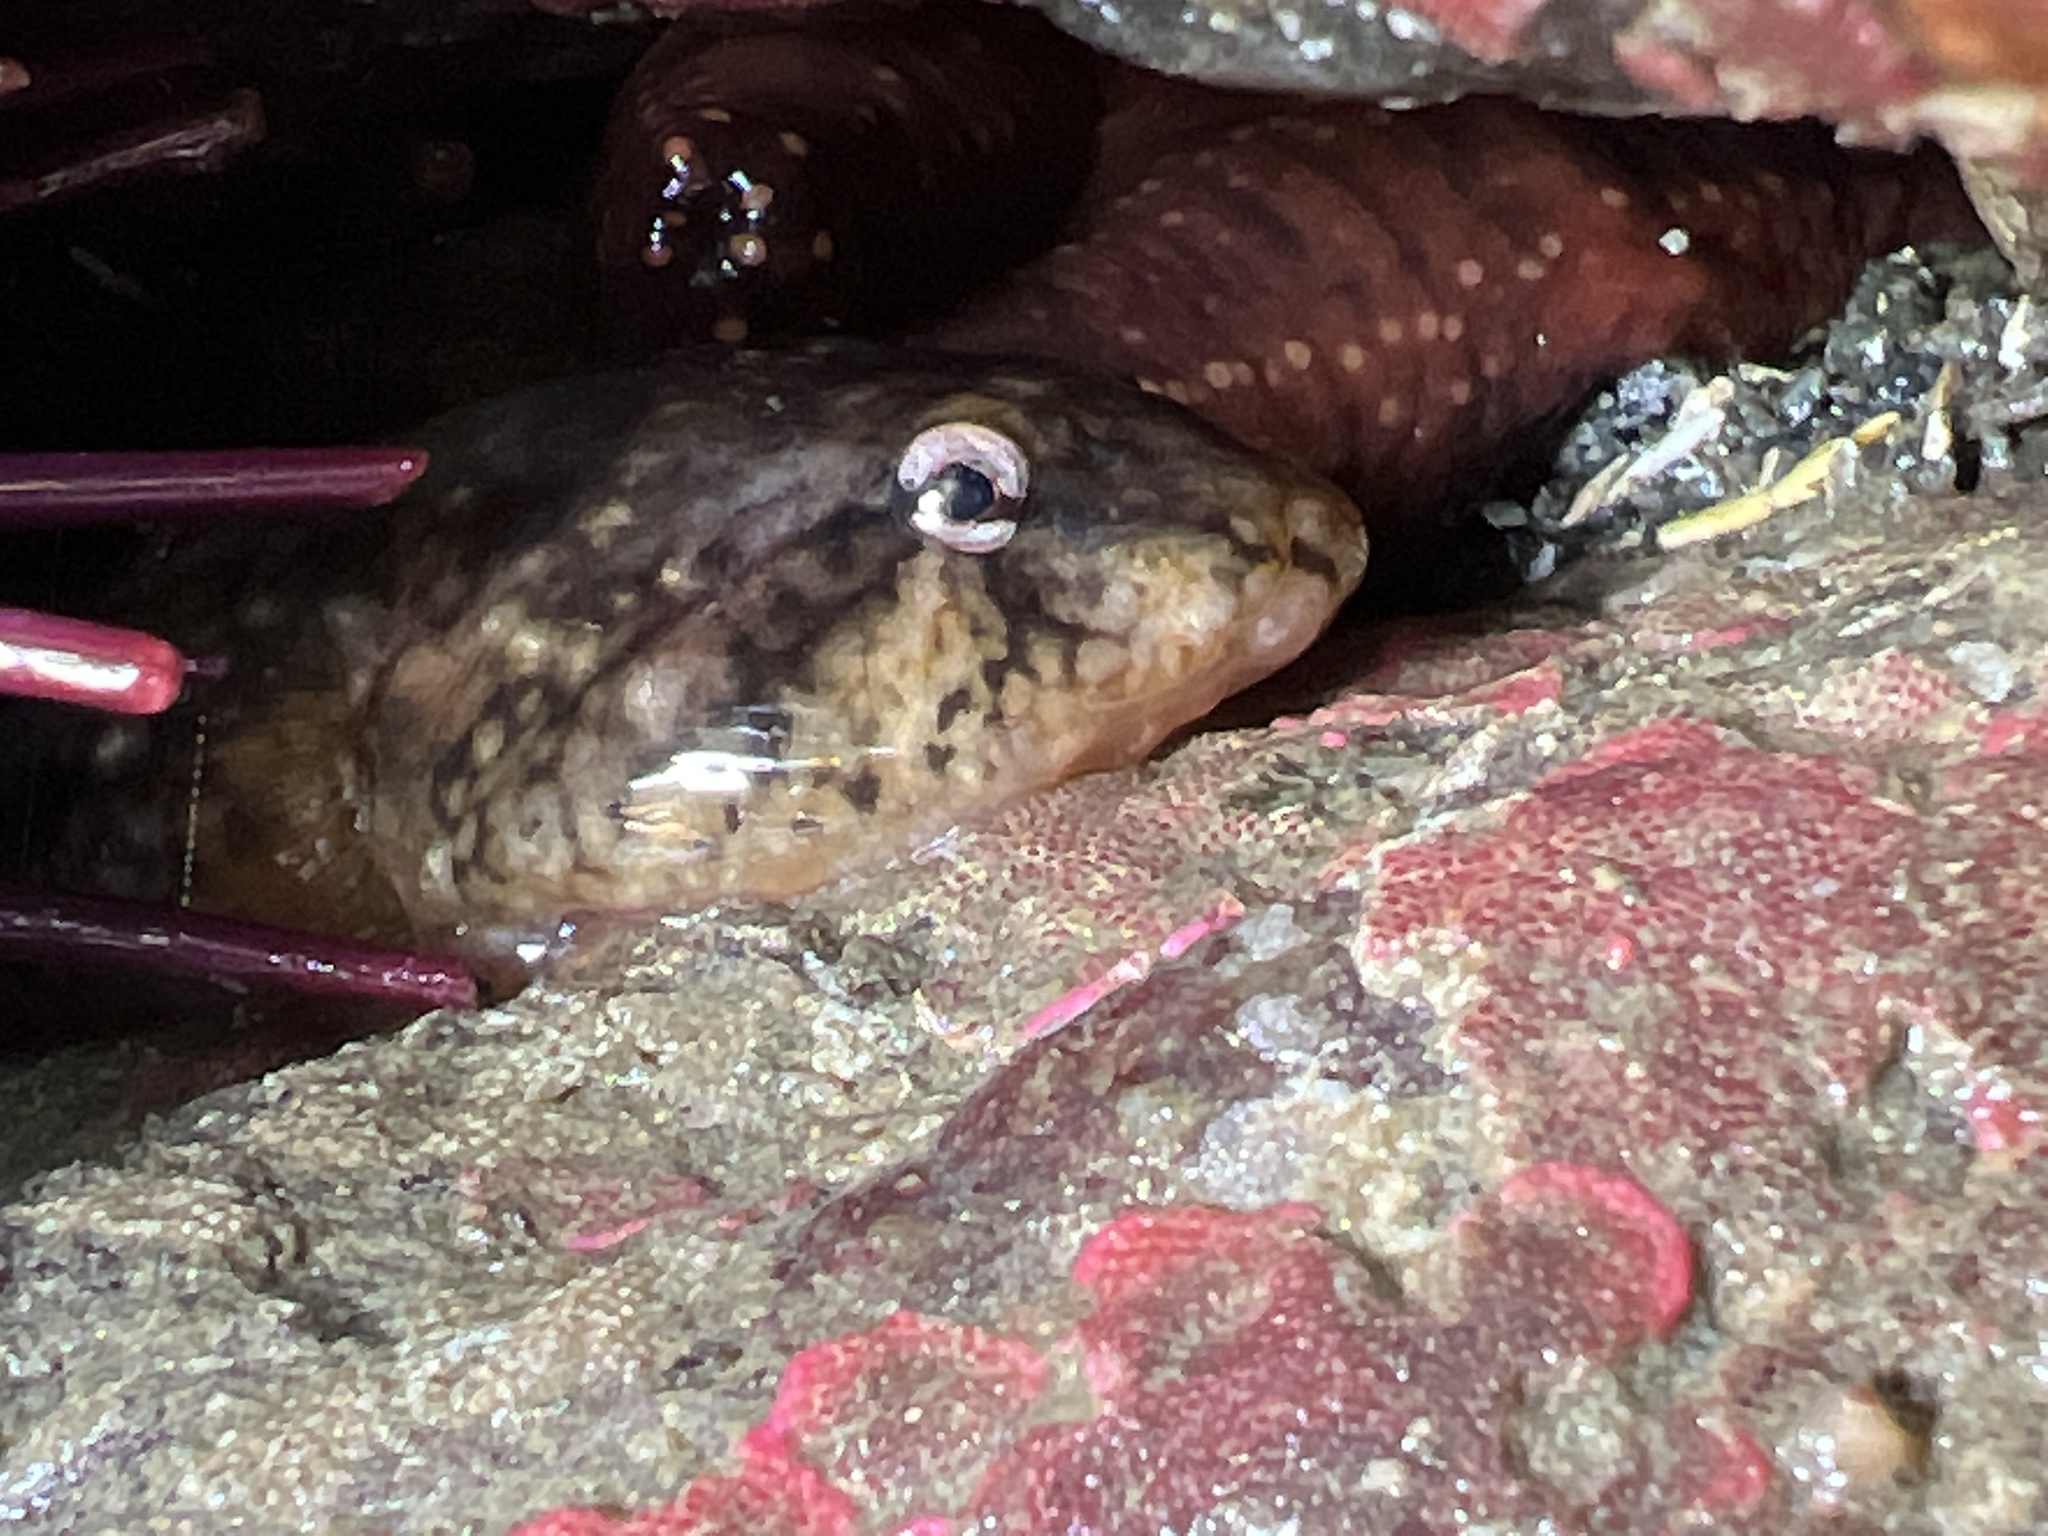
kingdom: Animalia
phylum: Chordata
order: Gobiesociformes
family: Gobiesocidae
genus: Gobiesox
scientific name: Gobiesox maeandricus
